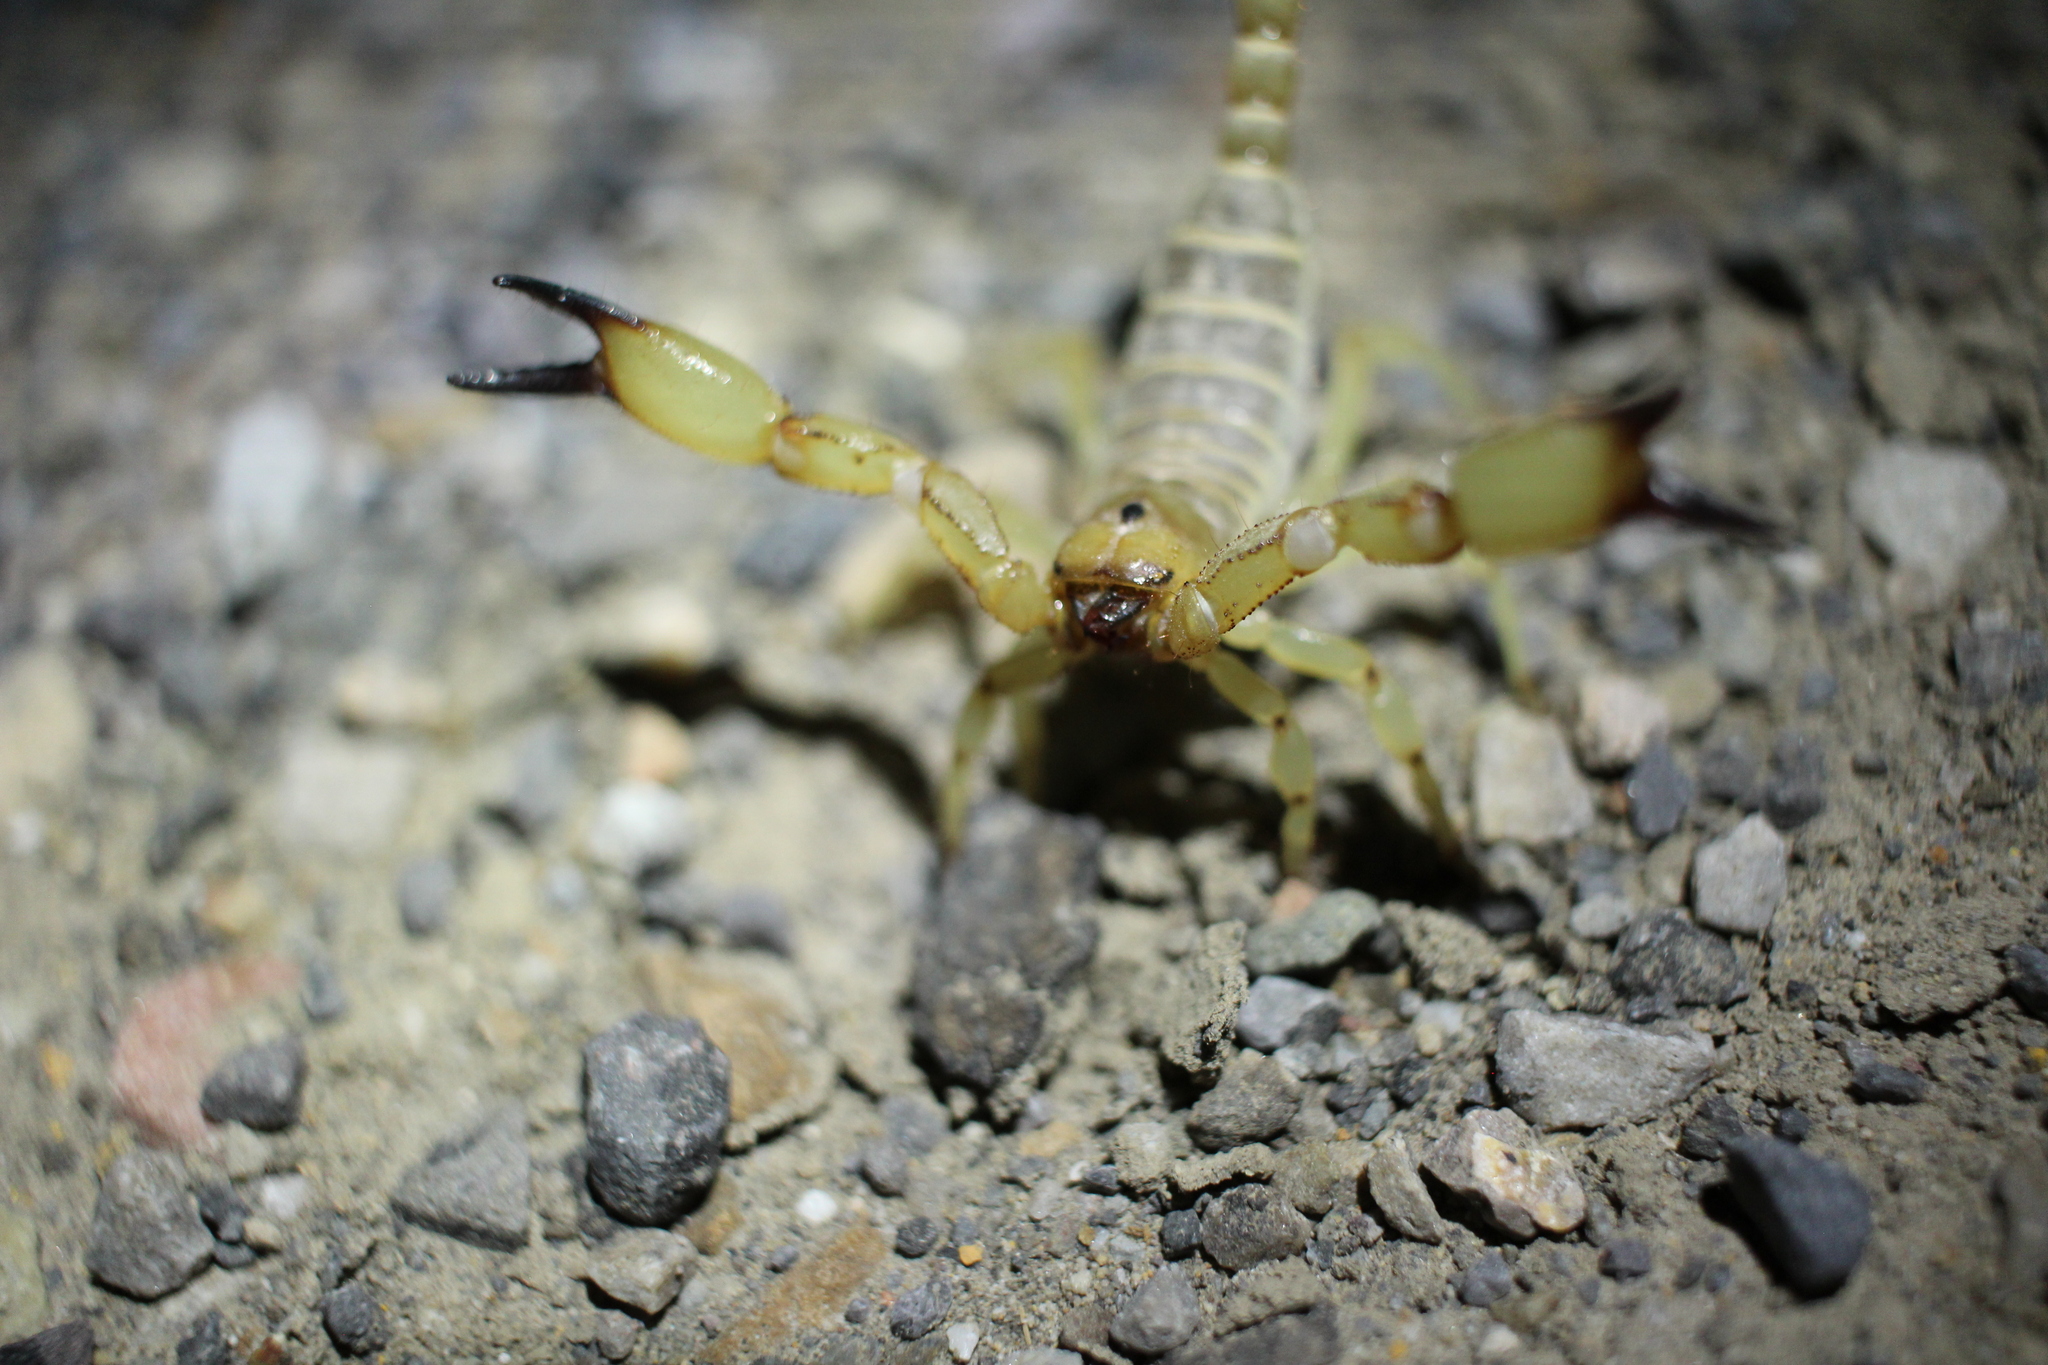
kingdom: Animalia
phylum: Arthropoda
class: Arachnida
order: Scorpiones
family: Chactidae
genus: Anuroctonus
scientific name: Anuroctonus phaiodactylus
